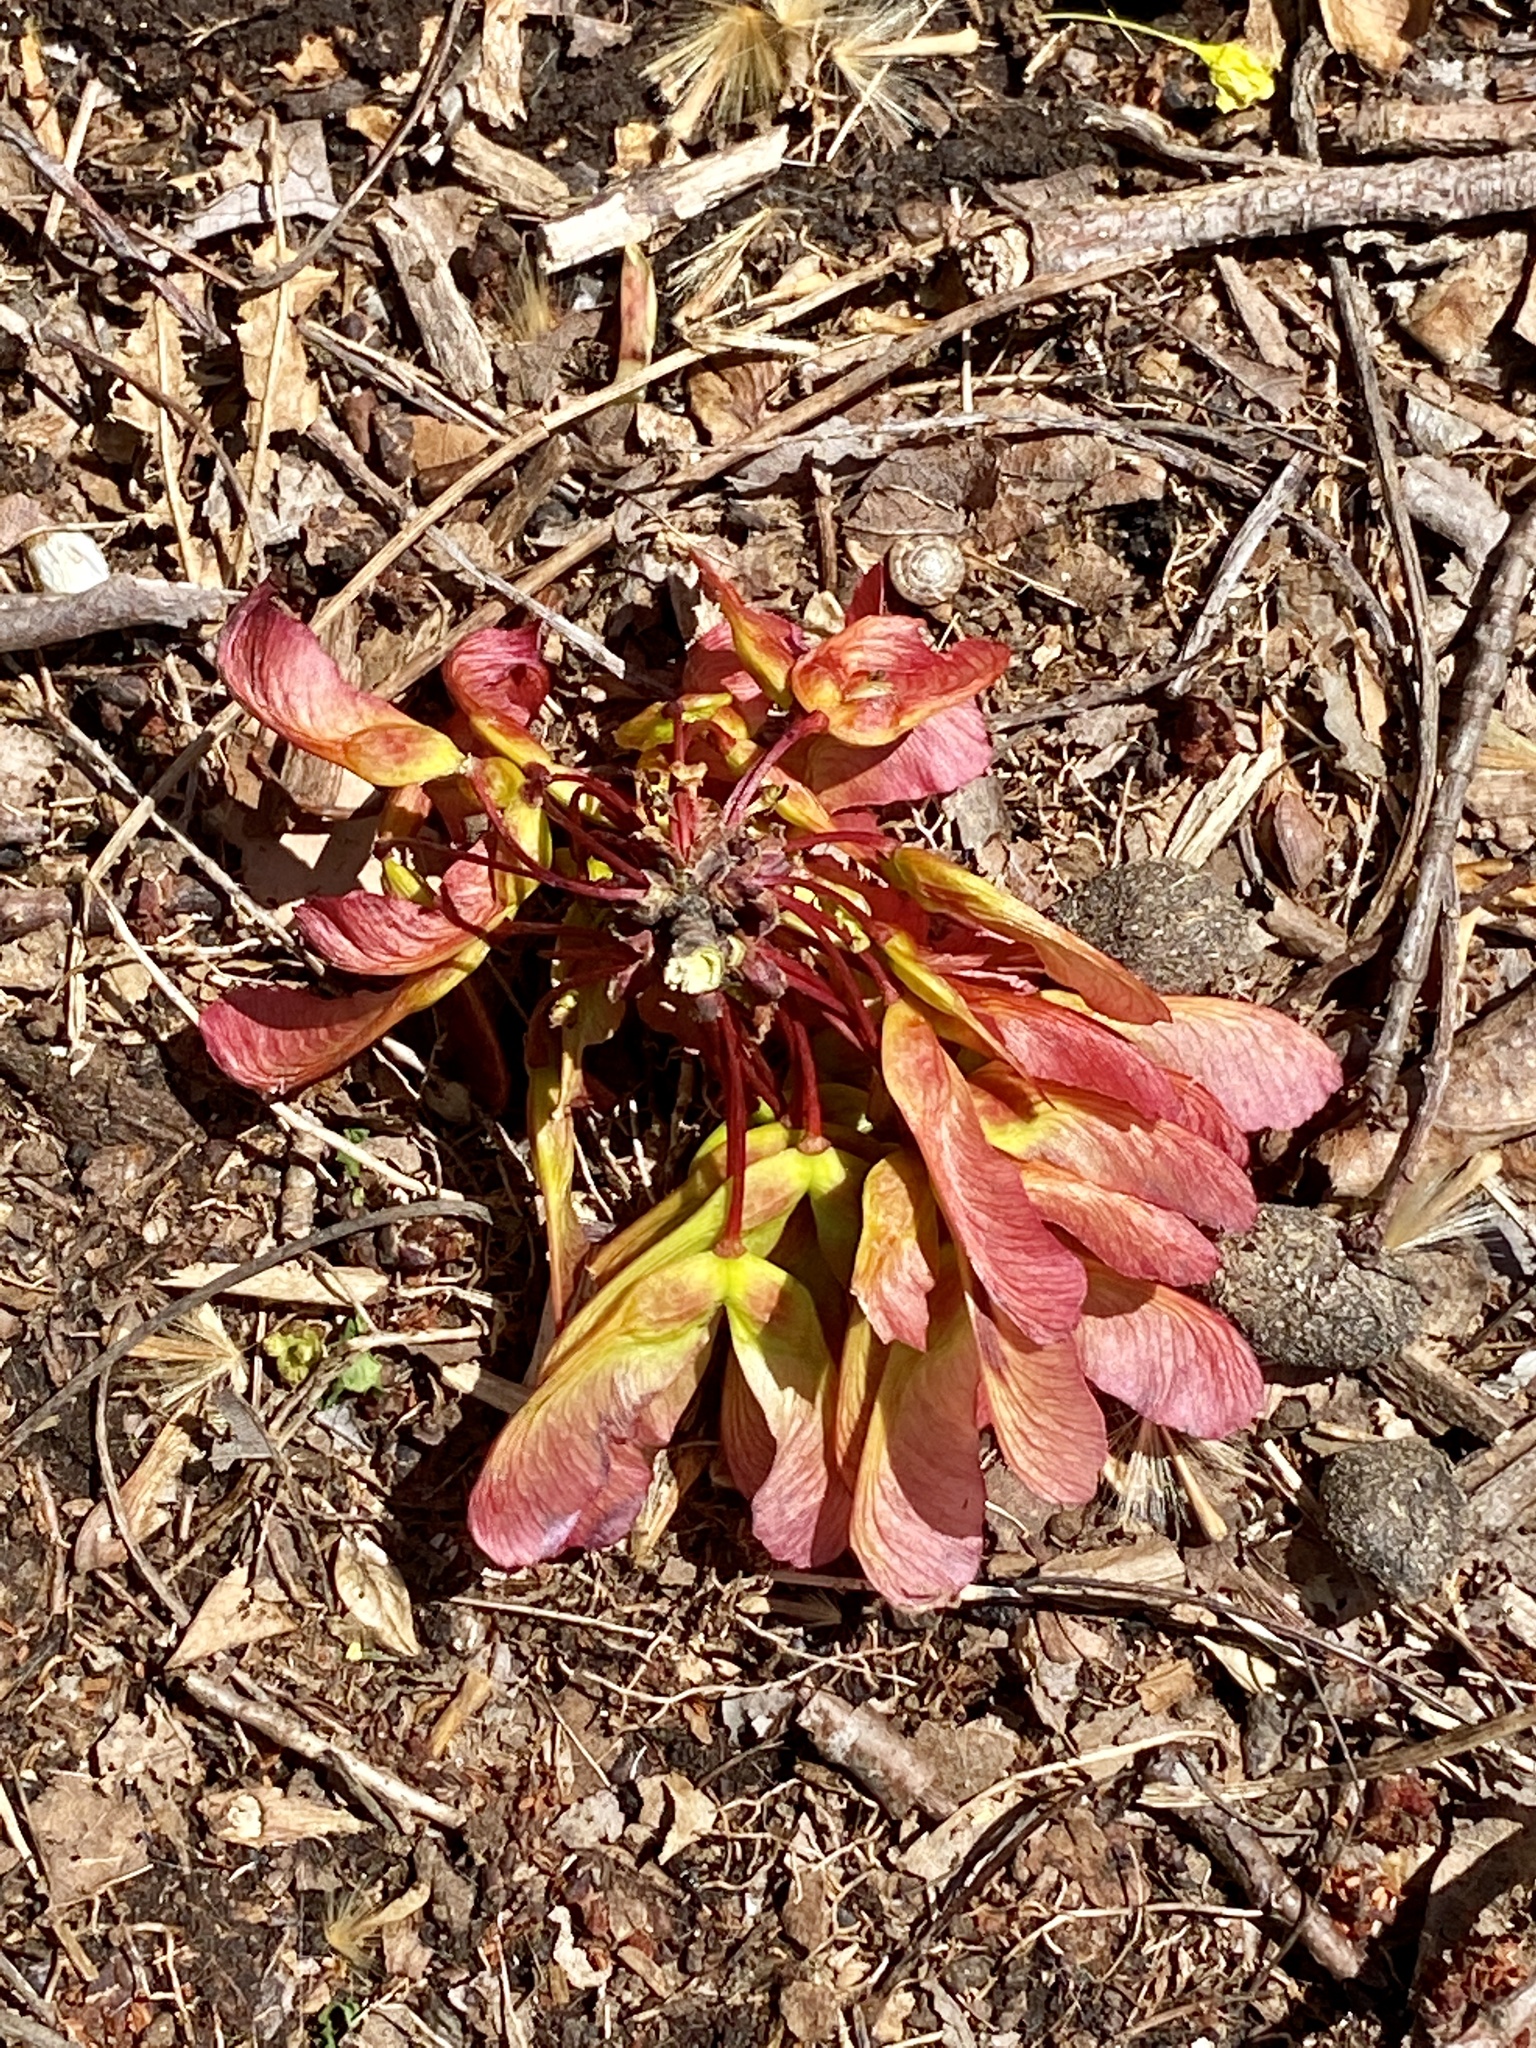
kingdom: Plantae
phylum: Tracheophyta
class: Magnoliopsida
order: Sapindales
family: Sapindaceae
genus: Acer
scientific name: Acer rubrum
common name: Red maple
